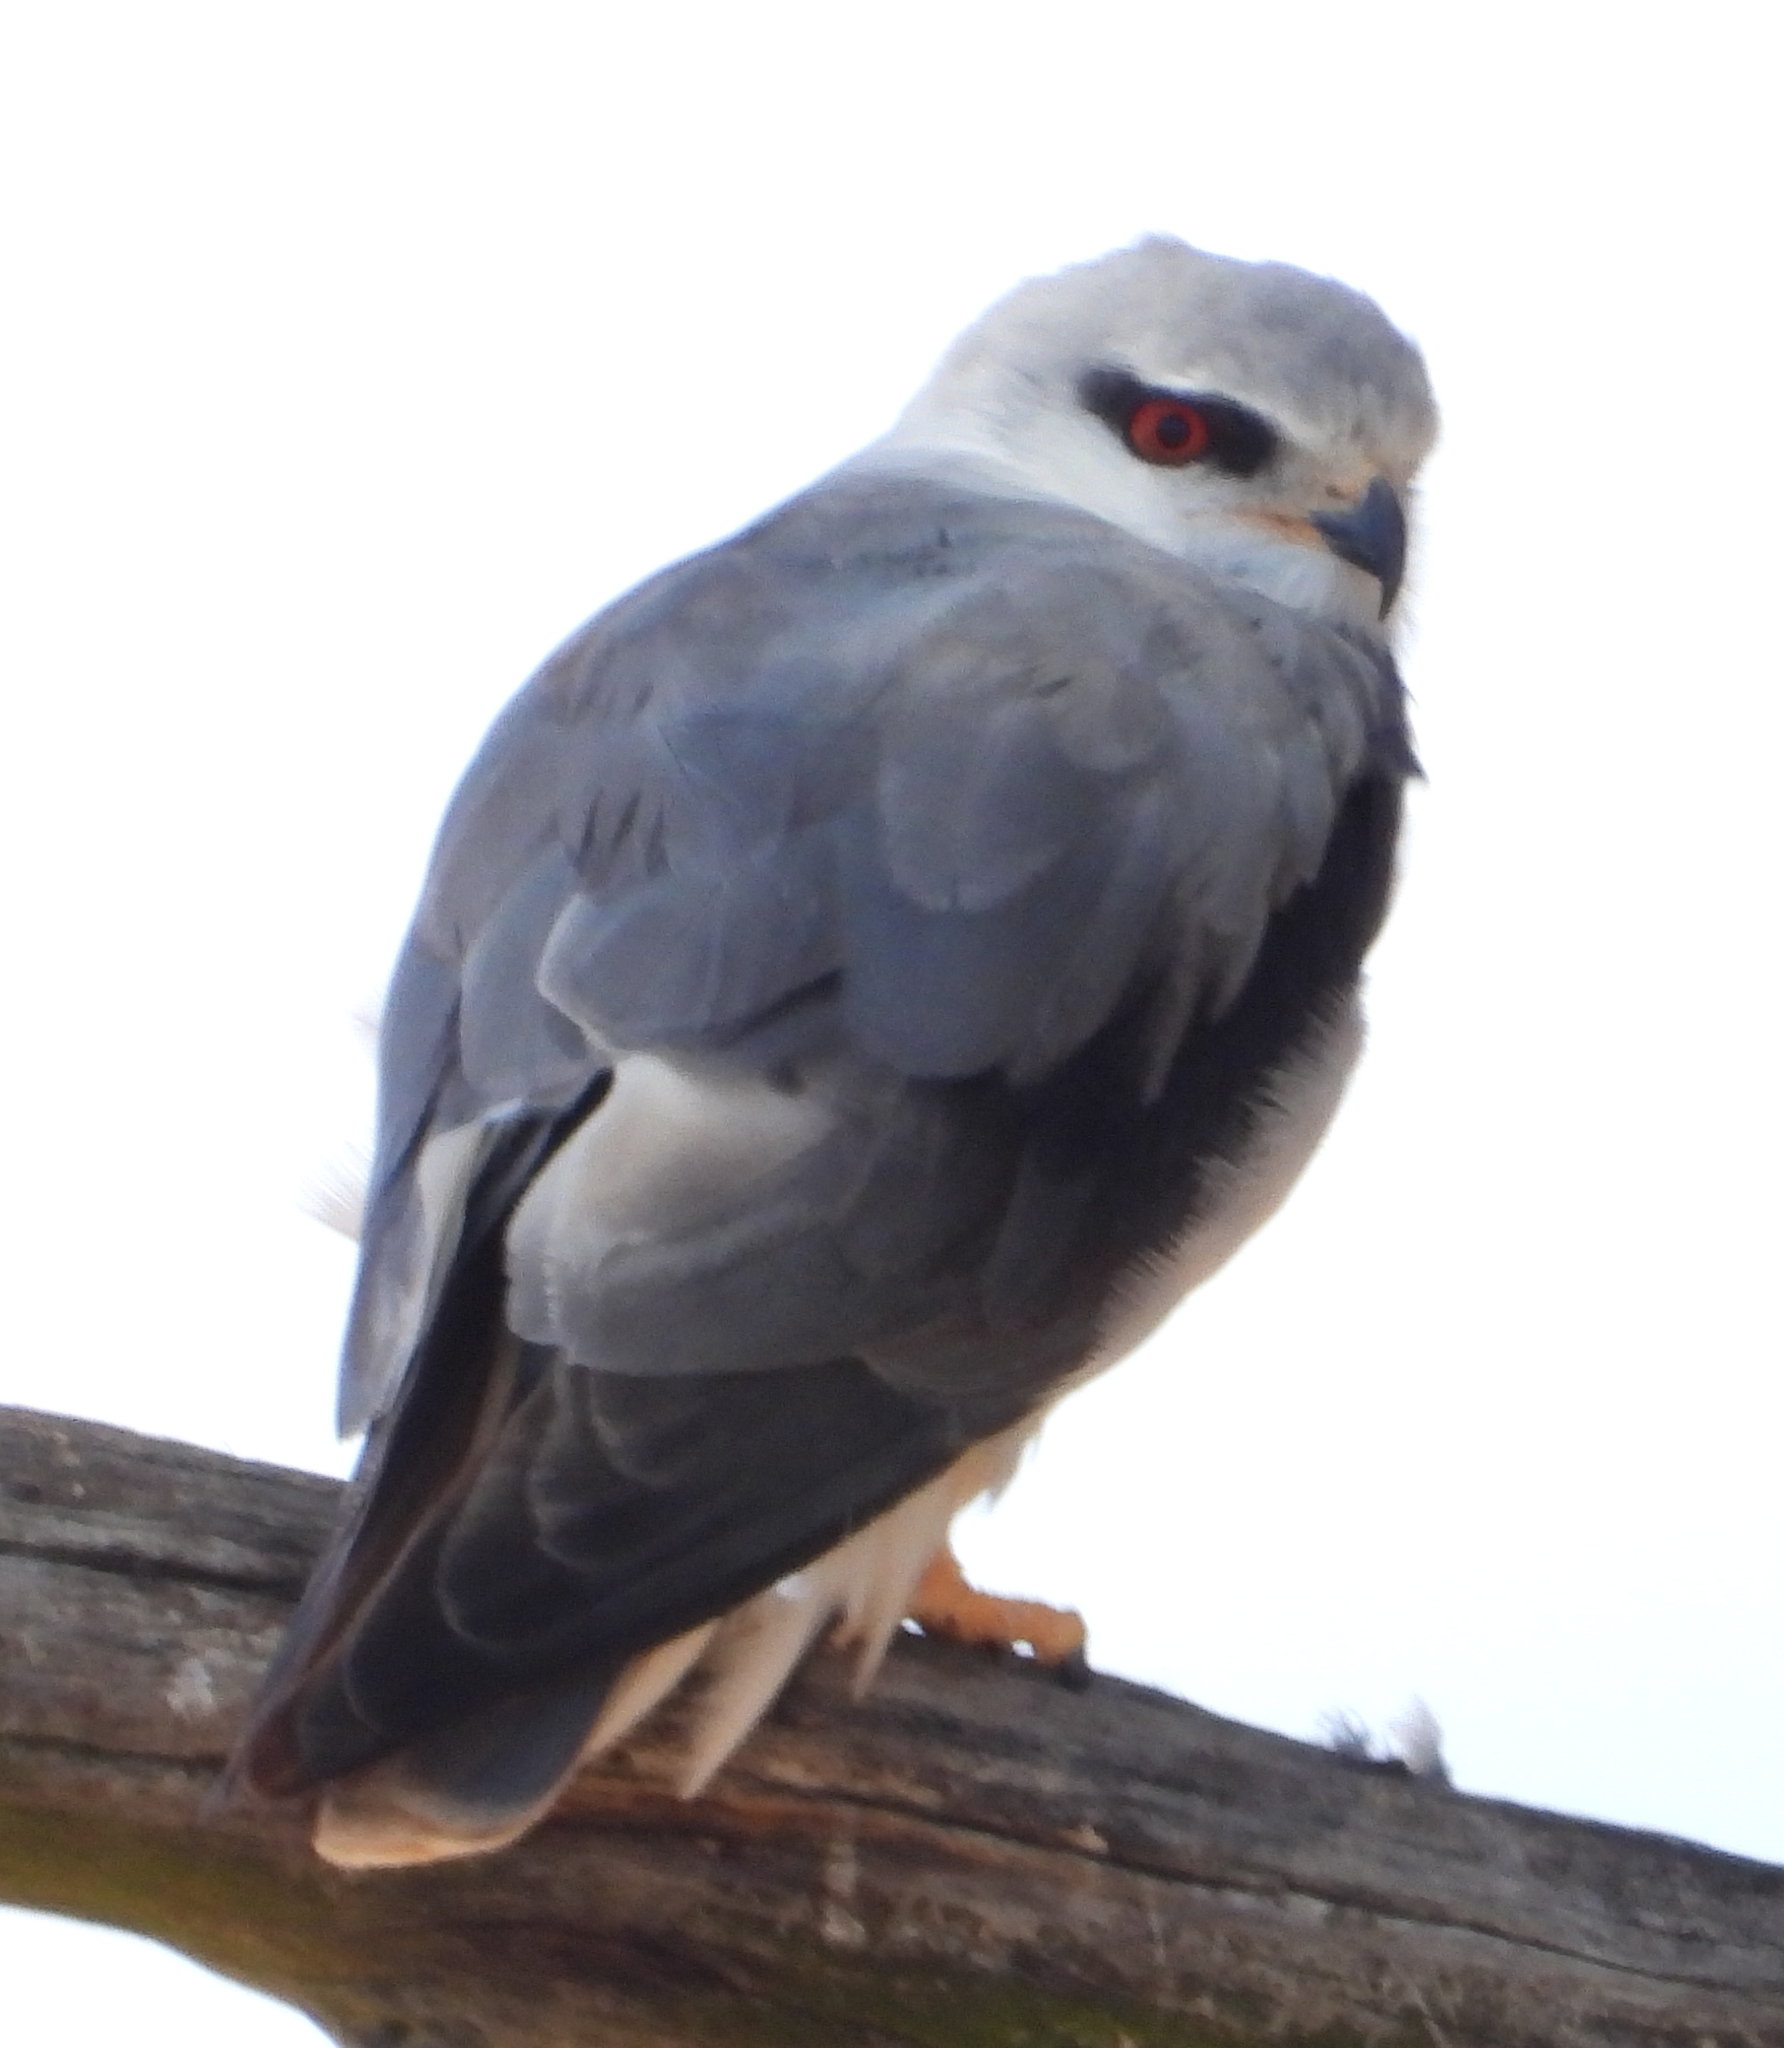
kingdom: Animalia
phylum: Chordata
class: Aves
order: Accipitriformes
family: Accipitridae
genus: Elanus
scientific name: Elanus caeruleus
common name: Black-winged kite
